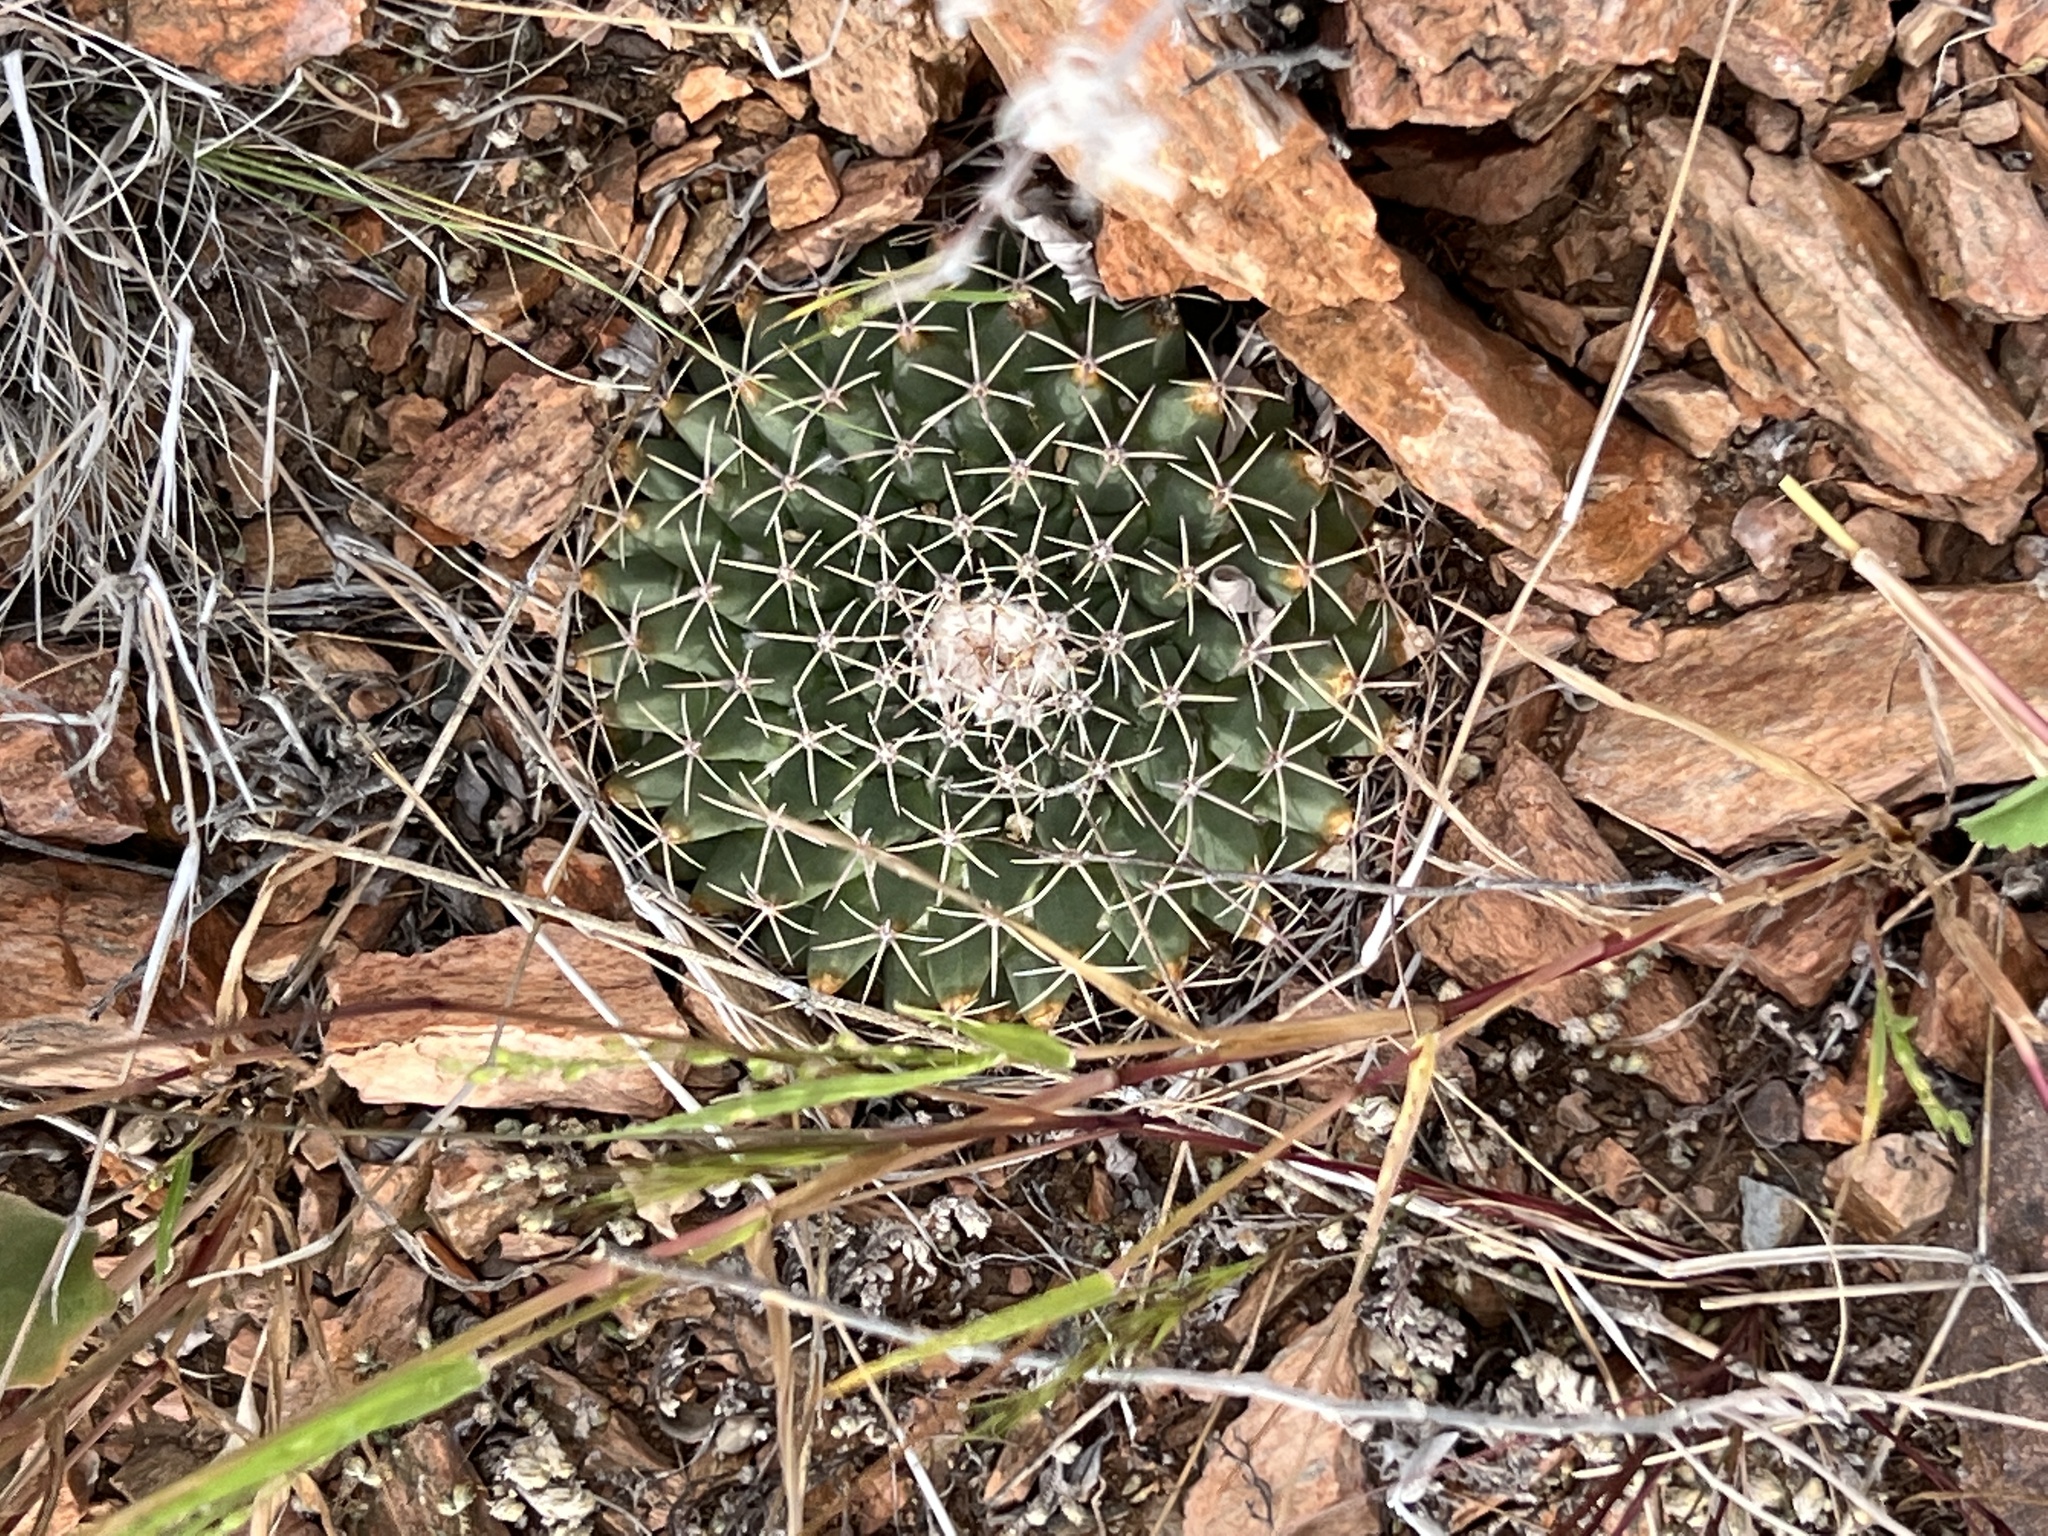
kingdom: Plantae
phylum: Tracheophyta
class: Magnoliopsida
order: Caryophyllales
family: Cactaceae
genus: Mammillaria
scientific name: Mammillaria heyderi
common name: Little nipple cactus
